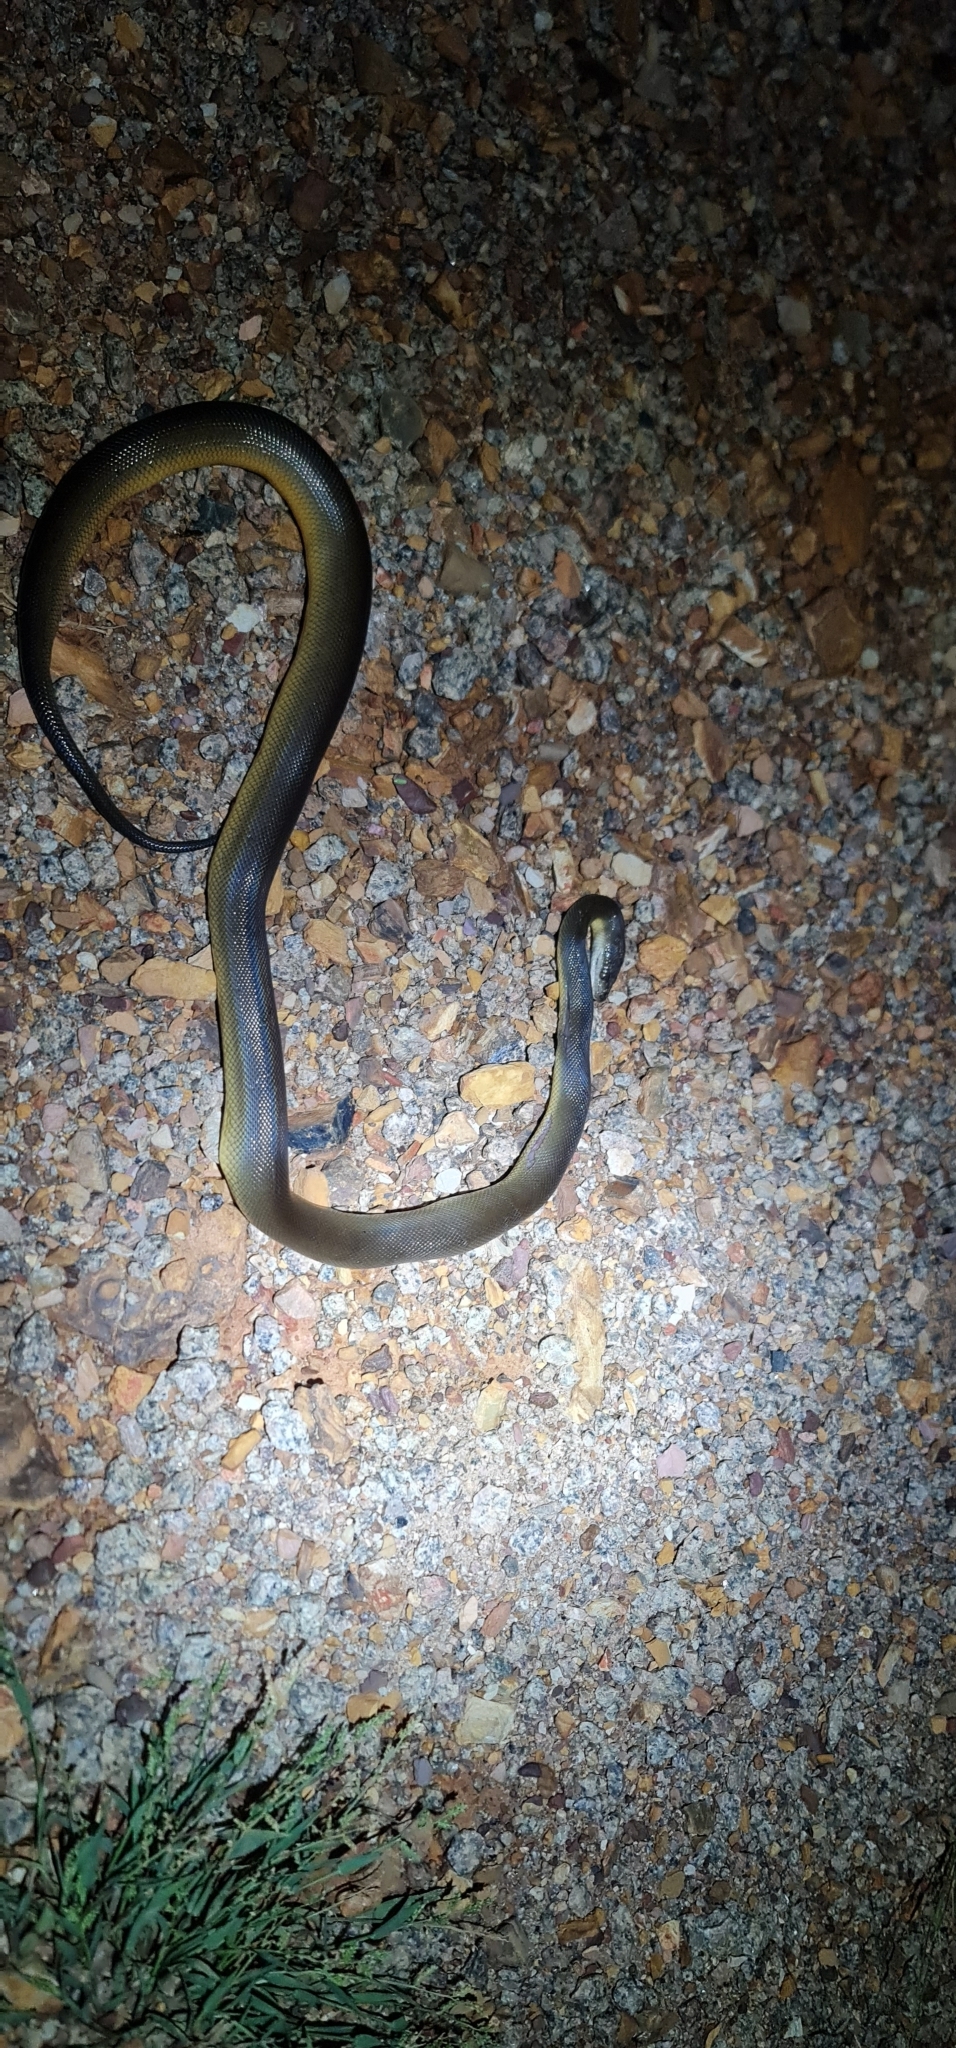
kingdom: Animalia
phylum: Chordata
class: Squamata
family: Pythonidae
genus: Liasis
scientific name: Liasis fuscus
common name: Brown water python
